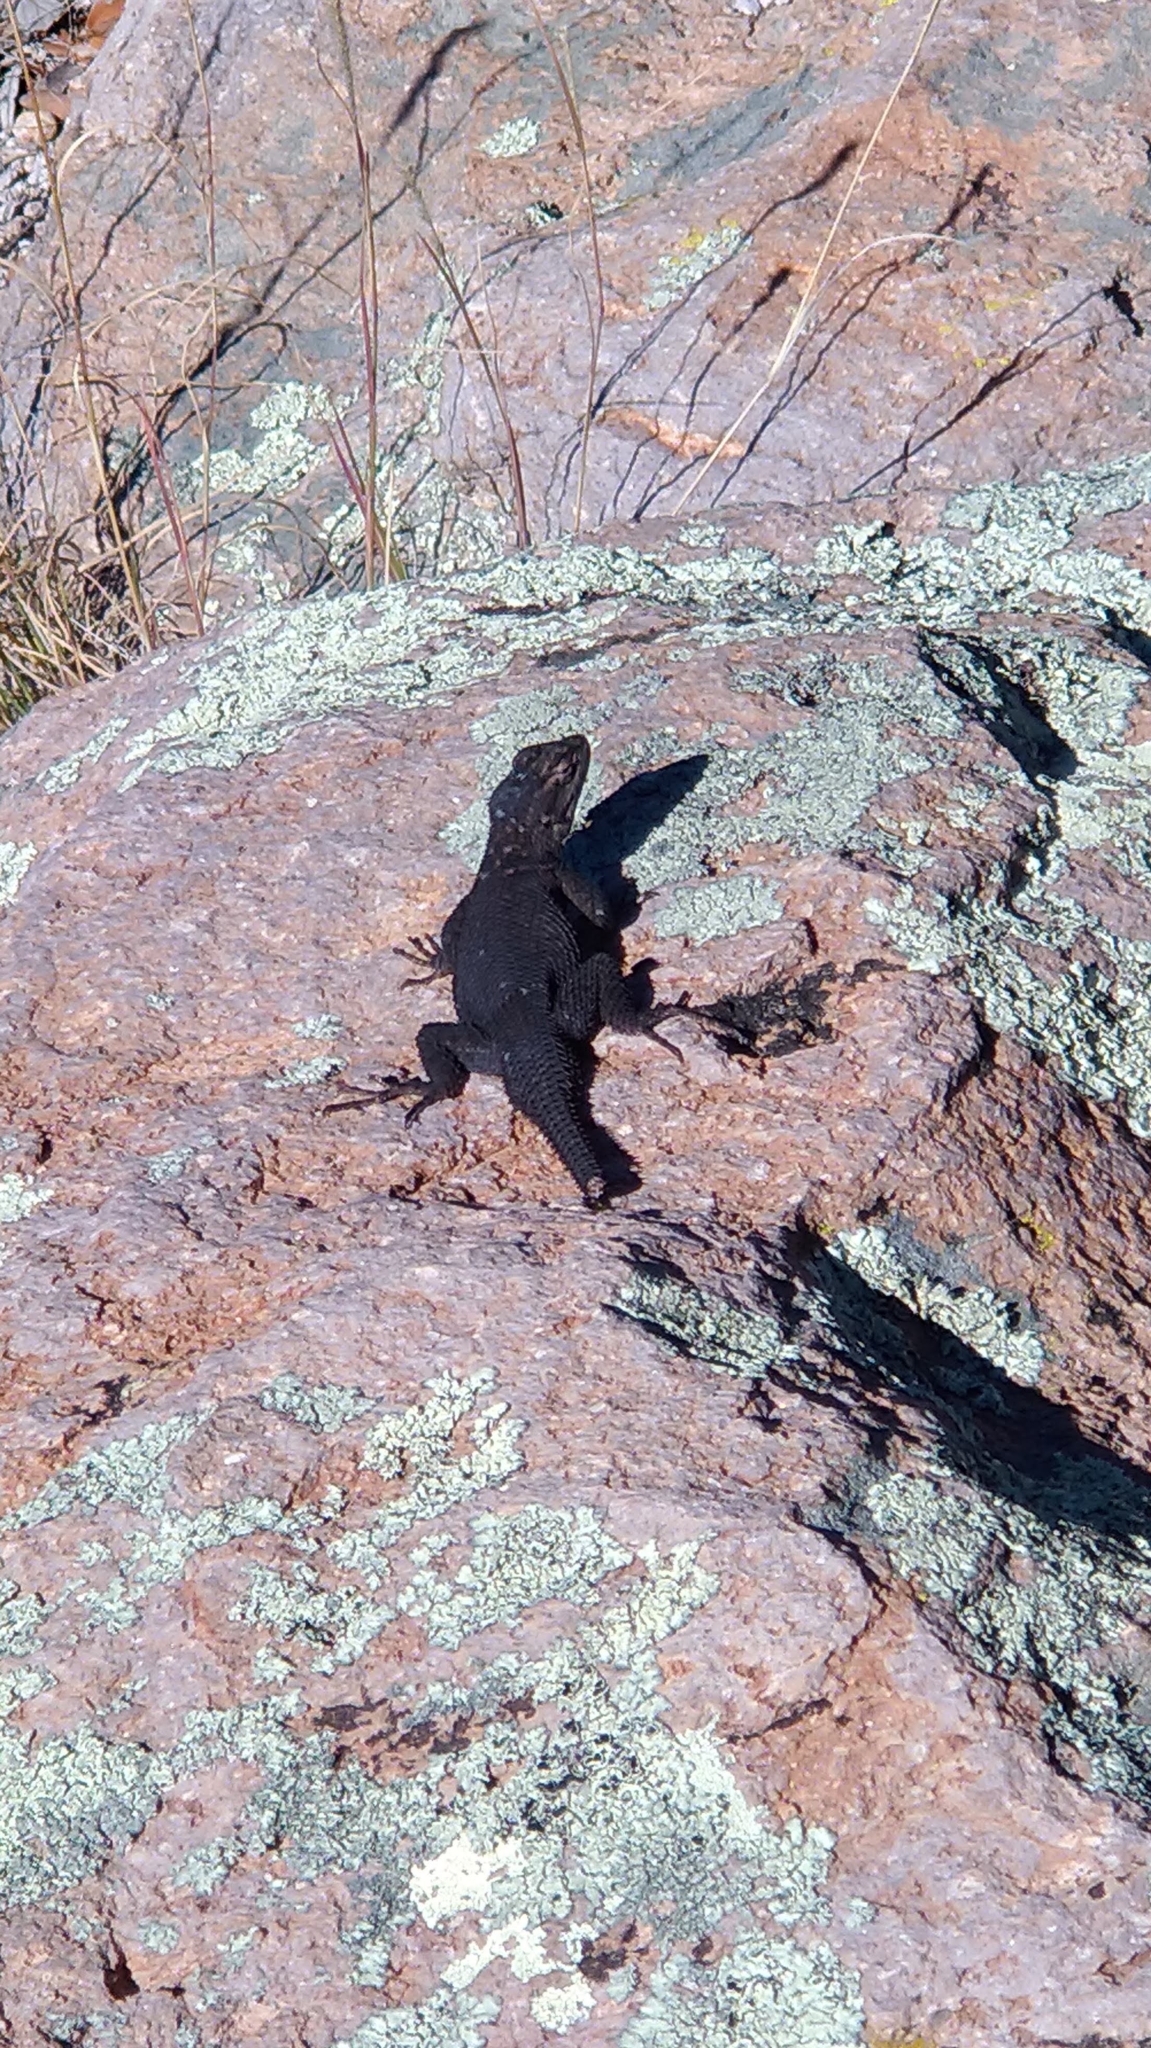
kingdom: Animalia
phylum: Chordata
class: Squamata
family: Phrynosomatidae
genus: Sceloporus
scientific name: Sceloporus jarrovii
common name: Yarrow's spiny lizard
